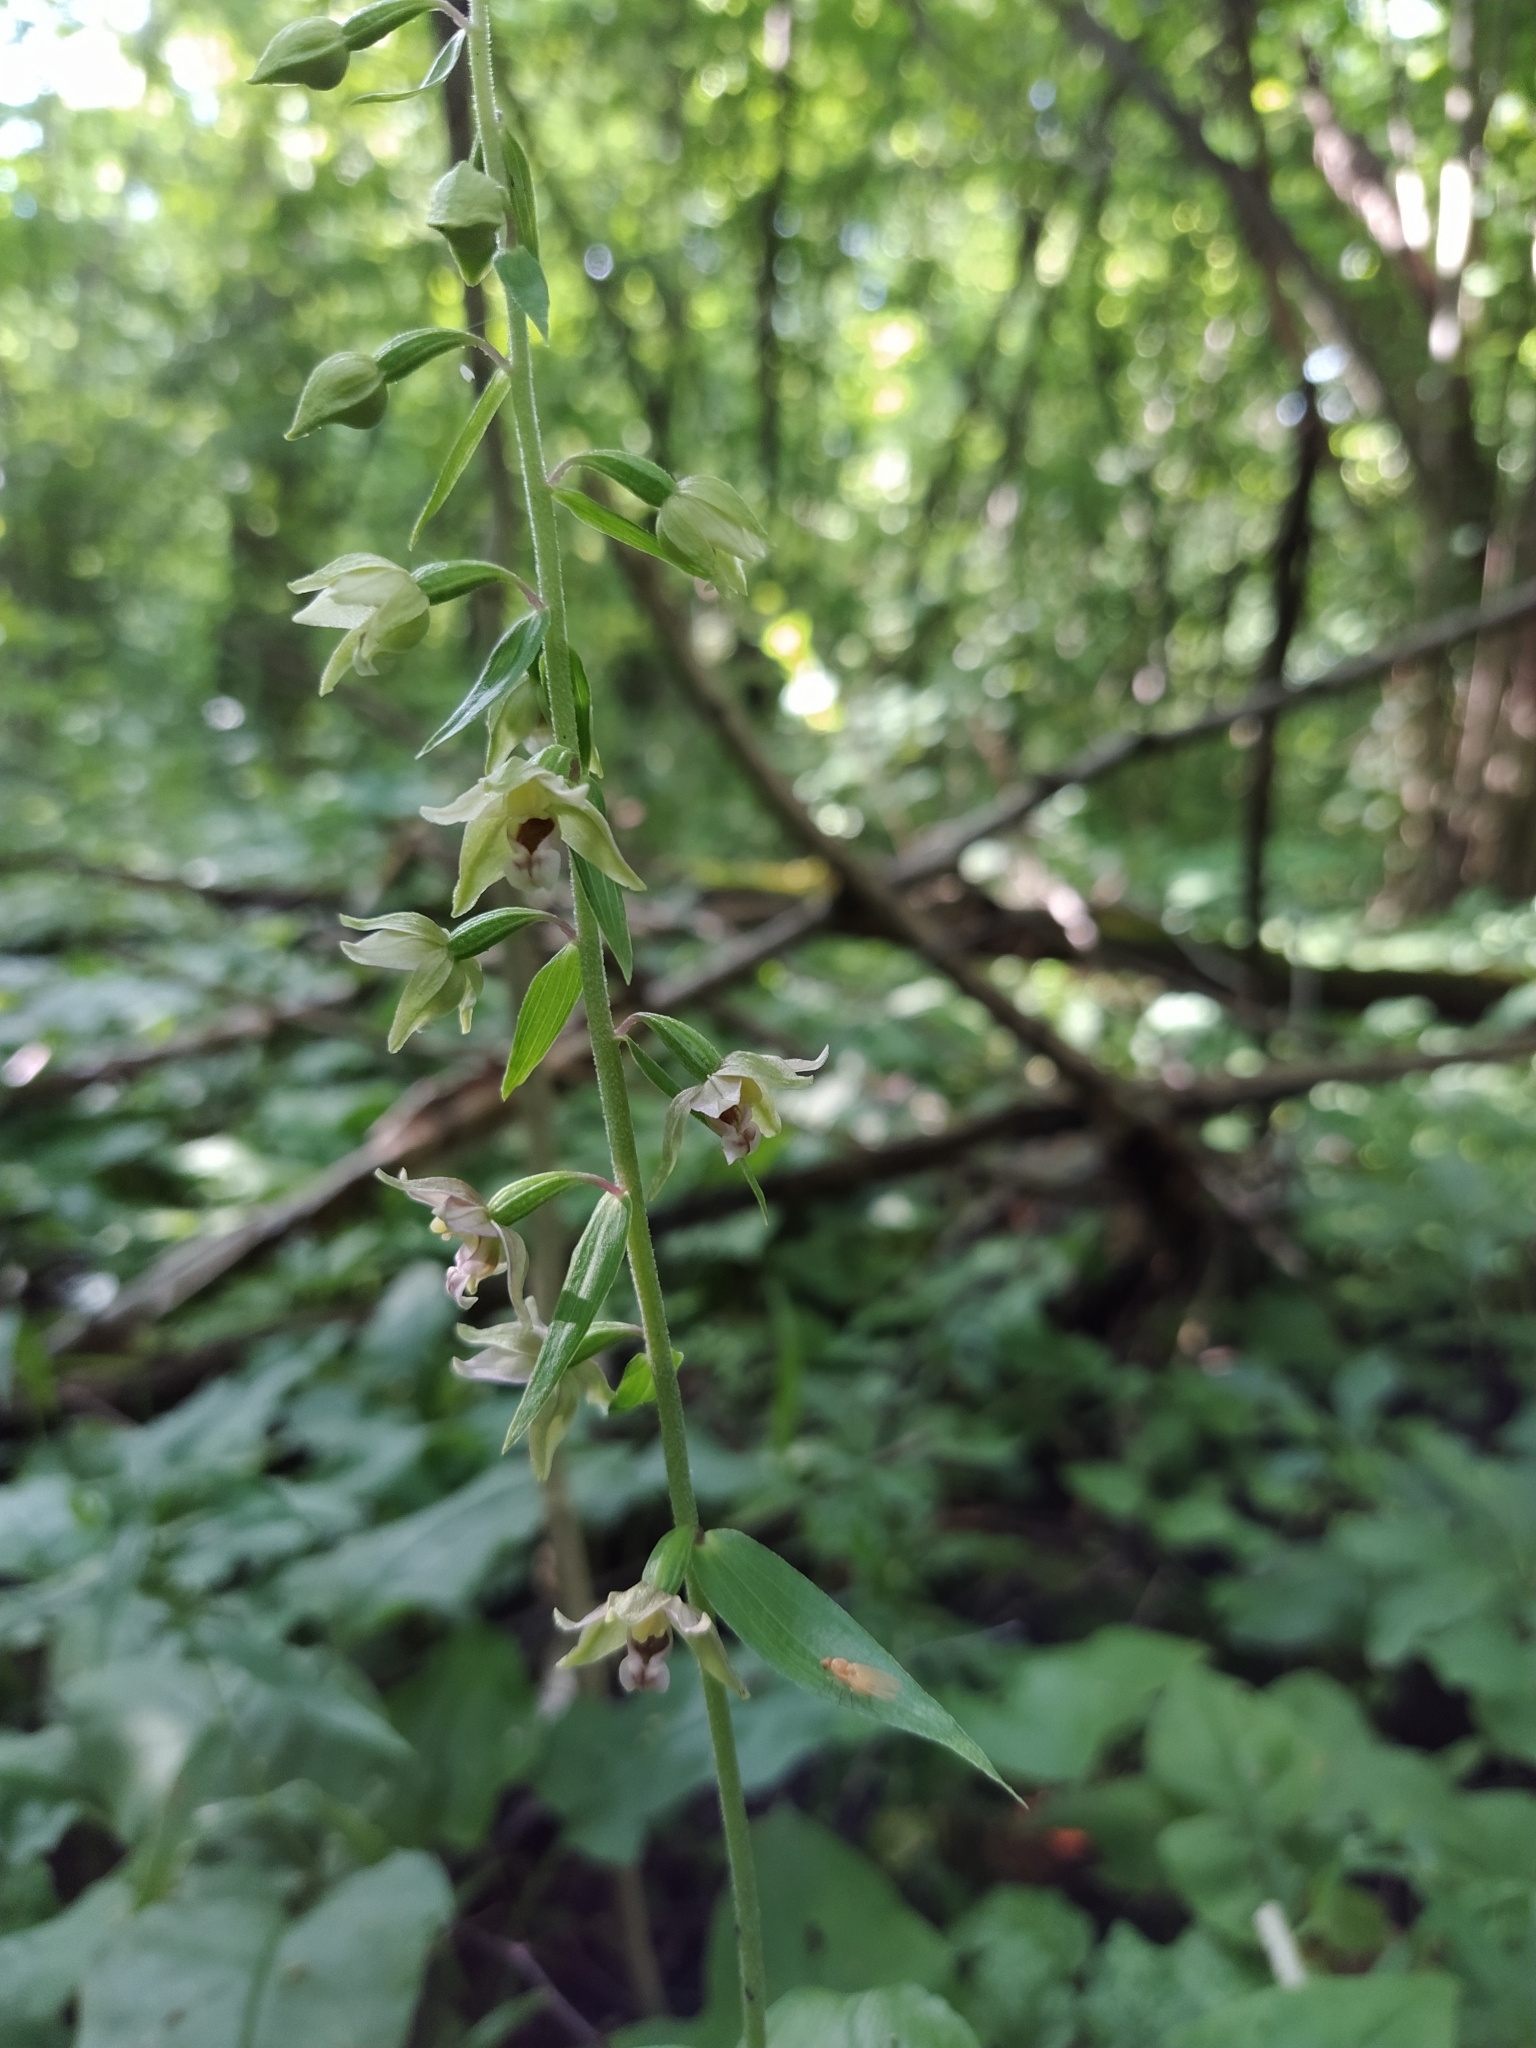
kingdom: Plantae
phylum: Tracheophyta
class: Liliopsida
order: Asparagales
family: Orchidaceae
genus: Epipactis
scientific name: Epipactis helleborine
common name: Broad-leaved helleborine
